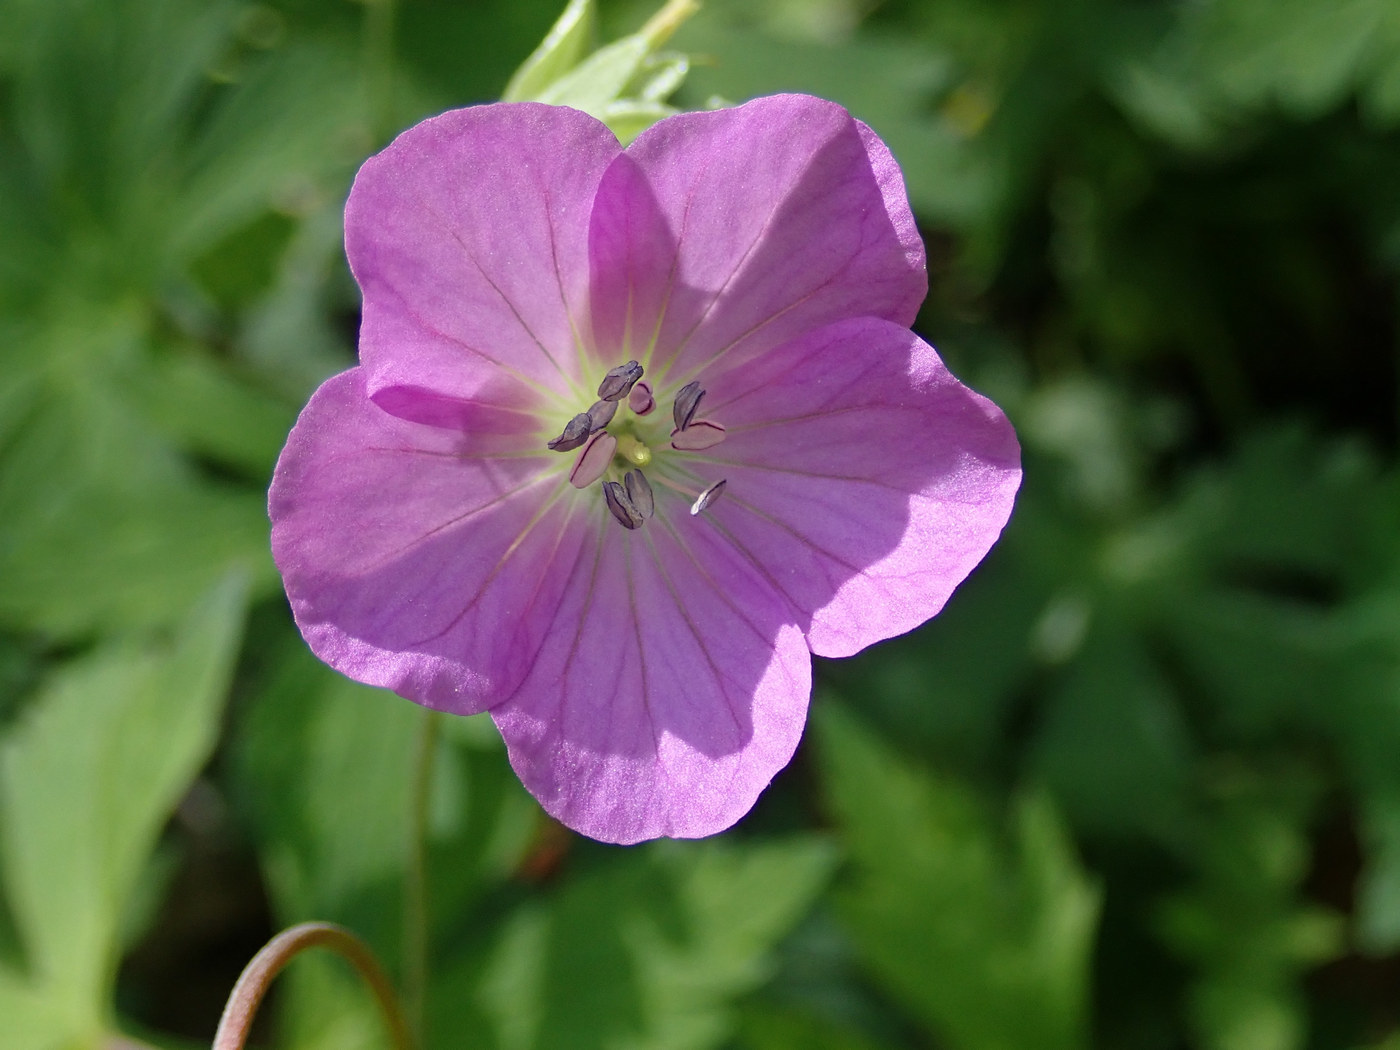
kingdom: Plantae
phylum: Tracheophyta
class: Magnoliopsida
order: Geraniales
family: Geraniaceae
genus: Geranium
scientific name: Geranium maculatum
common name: Spotted geranium
